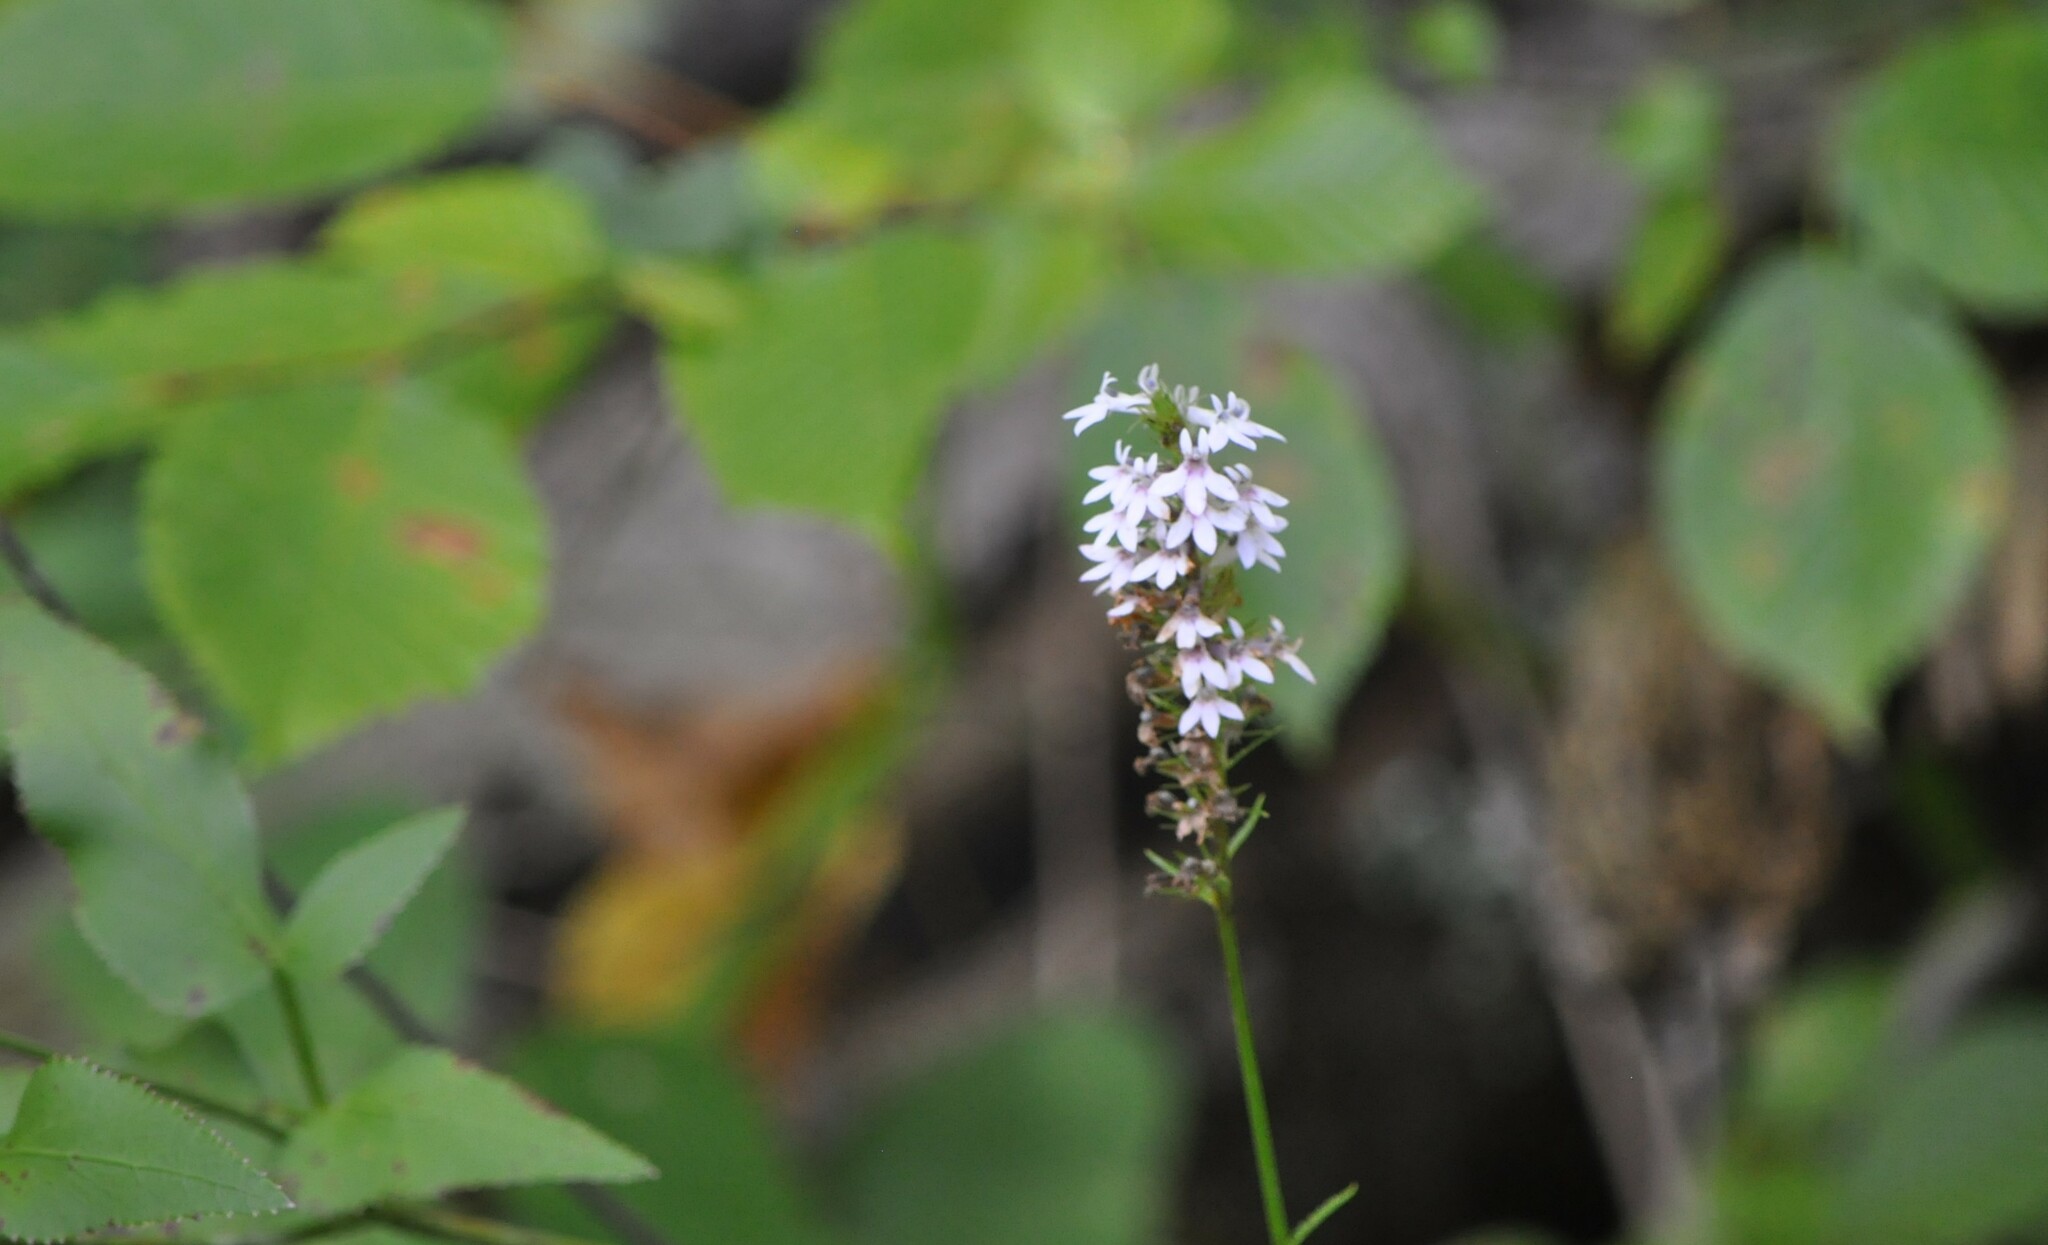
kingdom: Plantae
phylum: Tracheophyta
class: Magnoliopsida
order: Asterales
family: Campanulaceae
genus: Lobelia
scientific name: Lobelia spicata
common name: Pale-spike lobelia
